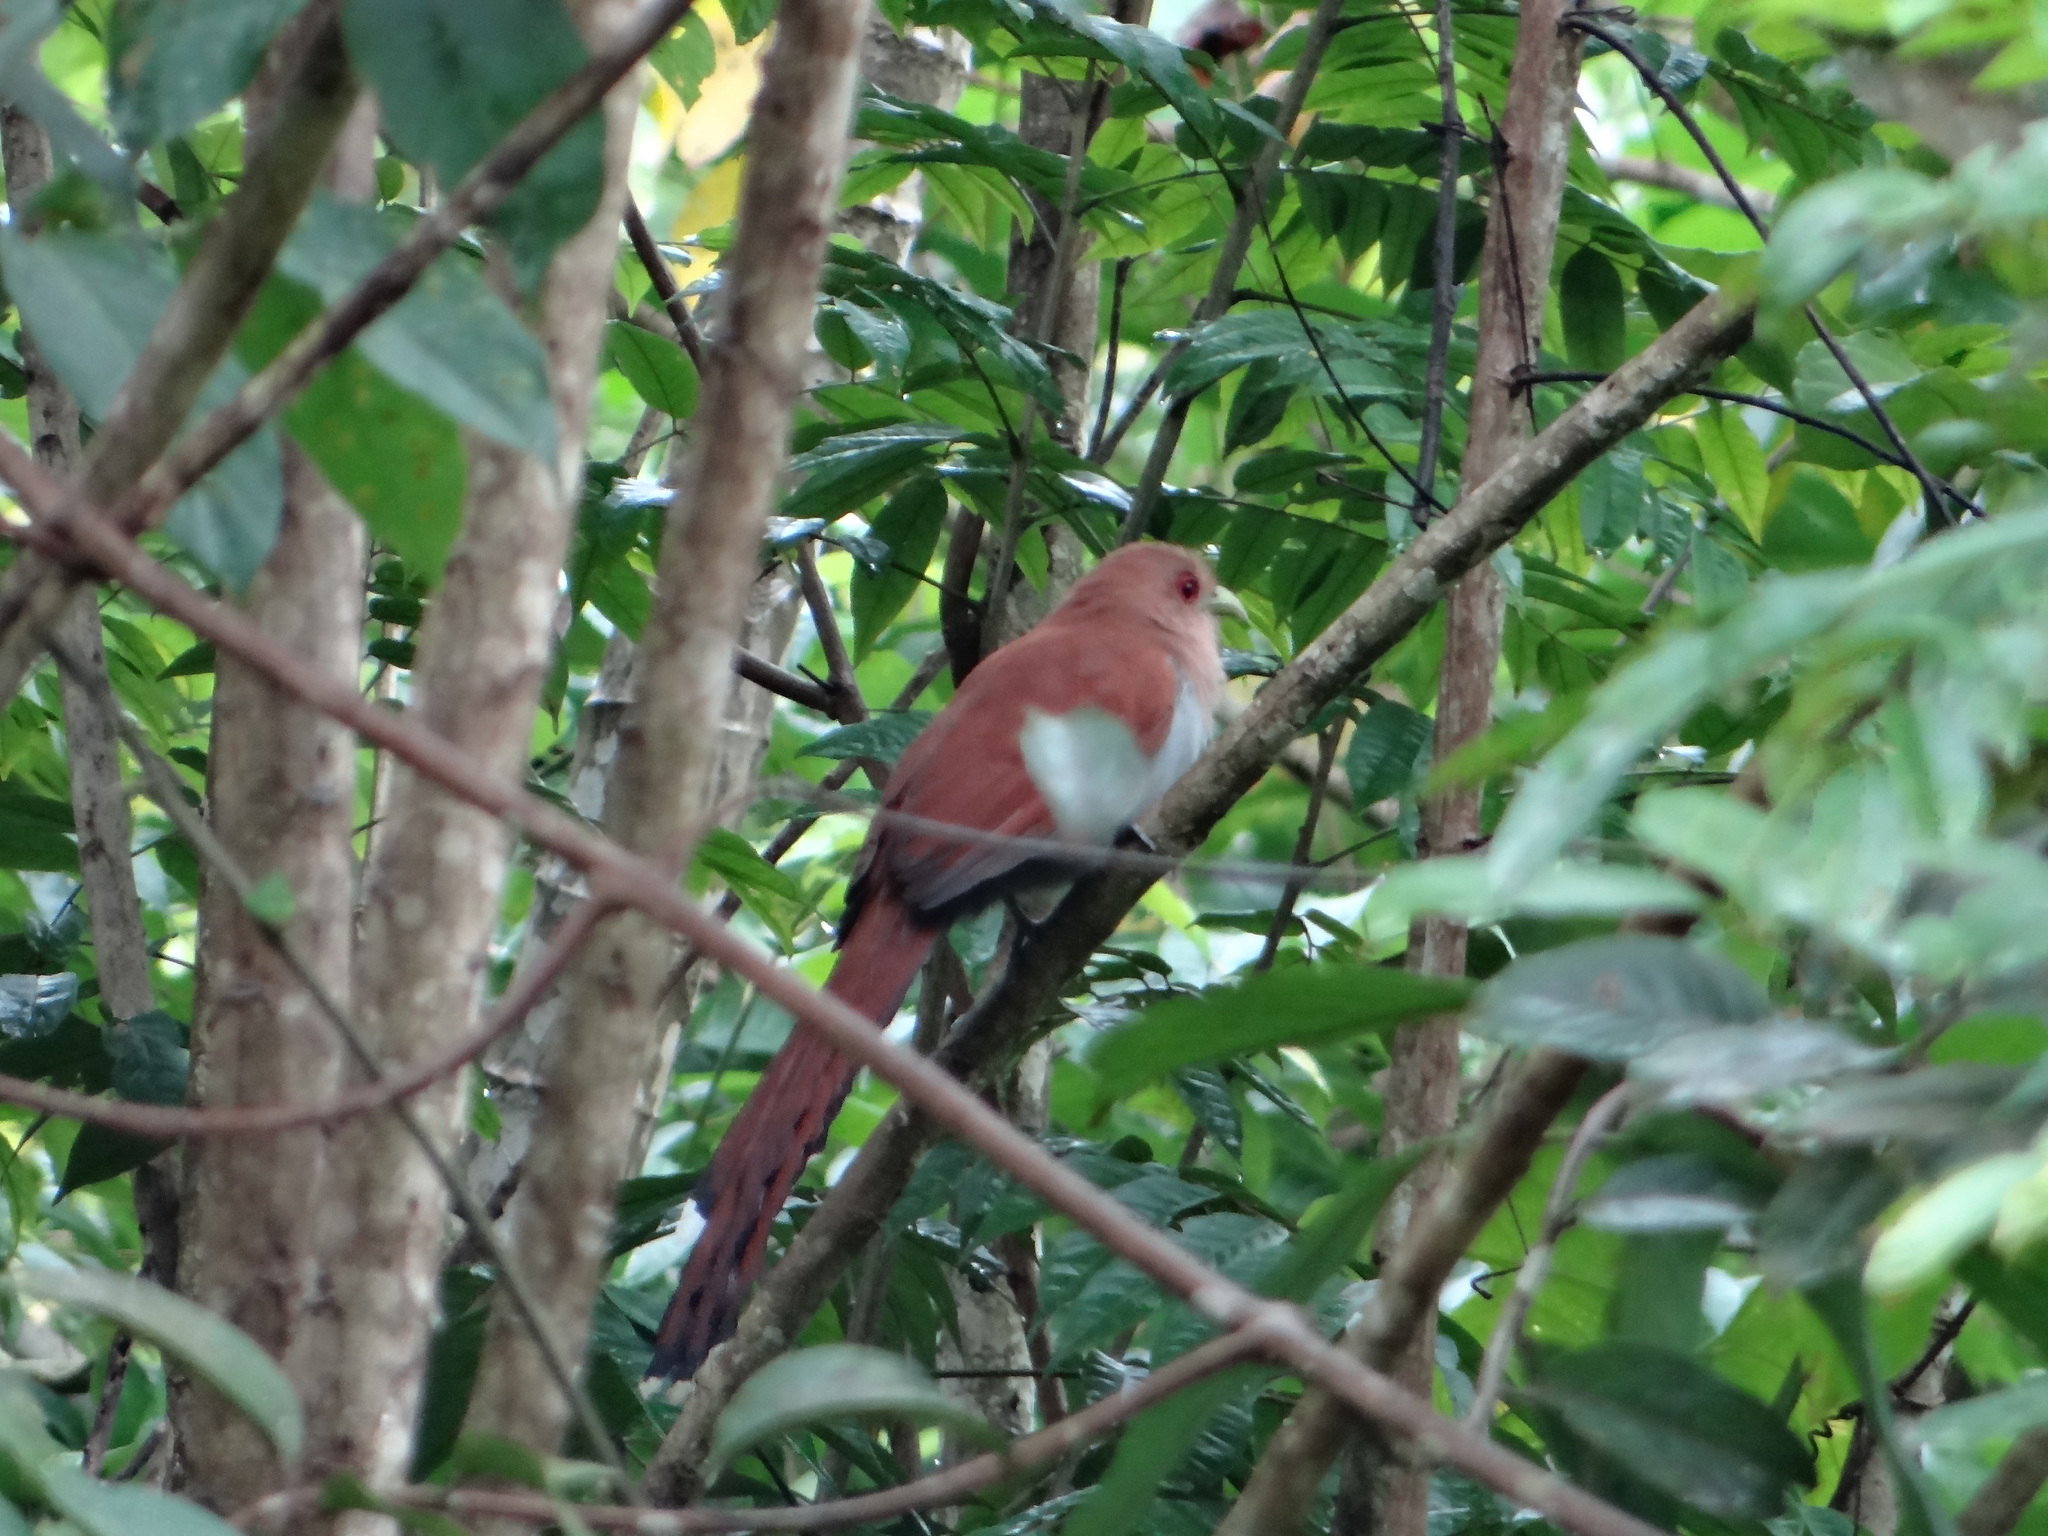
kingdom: Animalia
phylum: Chordata
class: Aves
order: Cuculiformes
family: Cuculidae
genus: Piaya
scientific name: Piaya cayana
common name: Squirrel cuckoo
